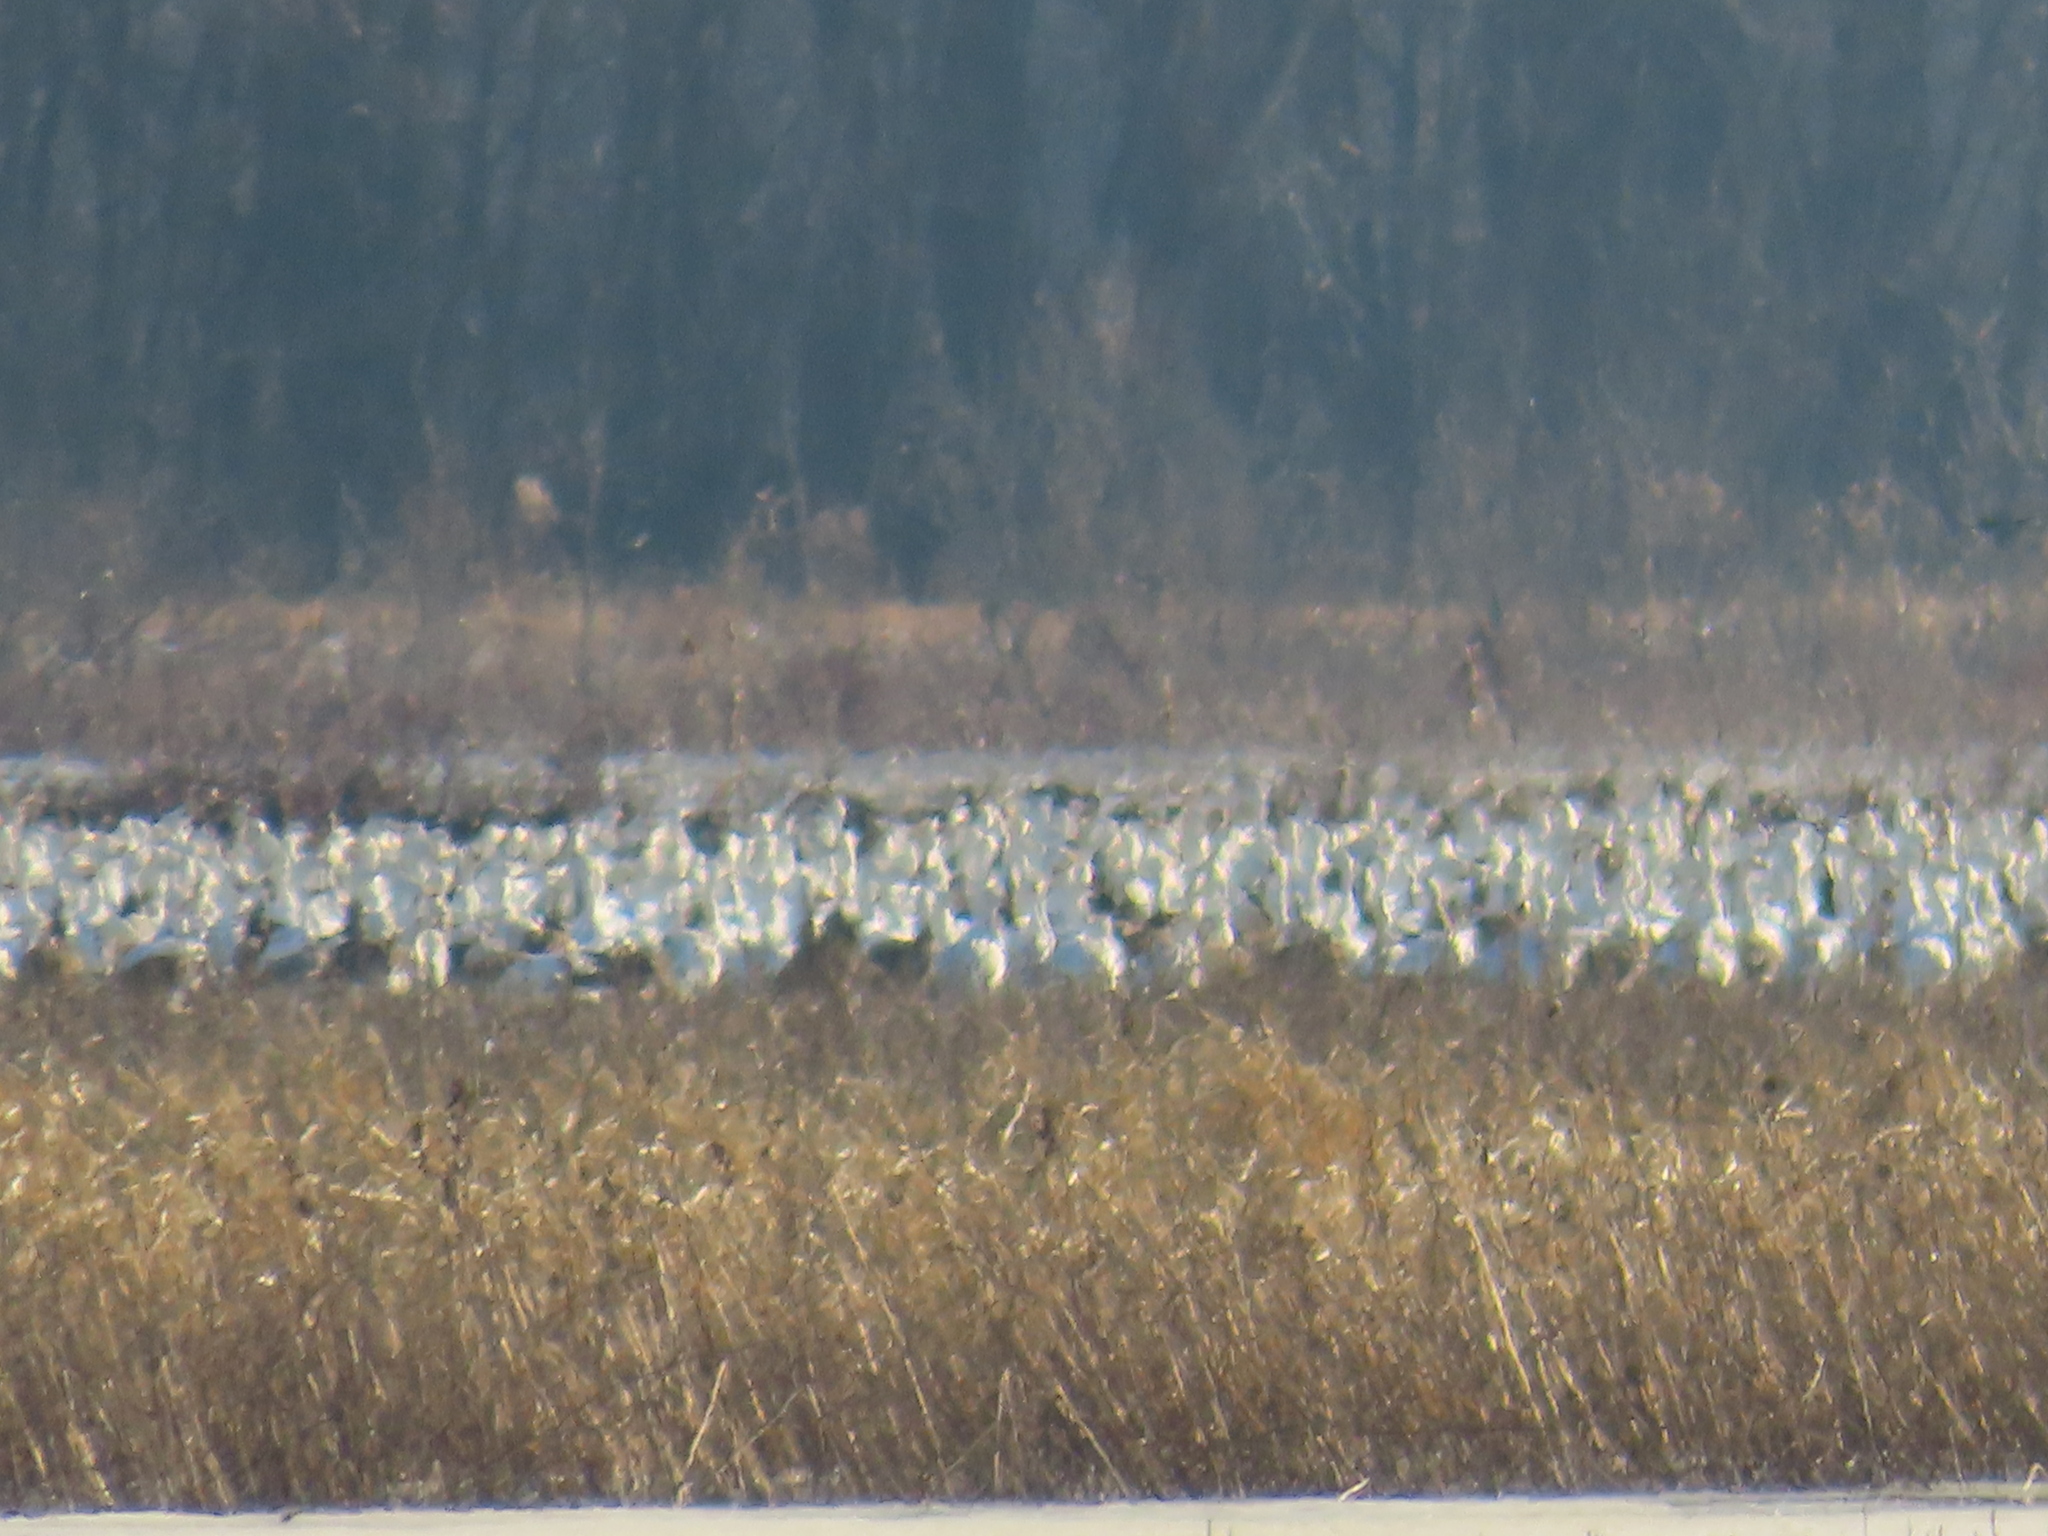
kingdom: Animalia
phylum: Chordata
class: Aves
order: Anseriformes
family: Anatidae
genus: Anser
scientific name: Anser caerulescens
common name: Snow goose
